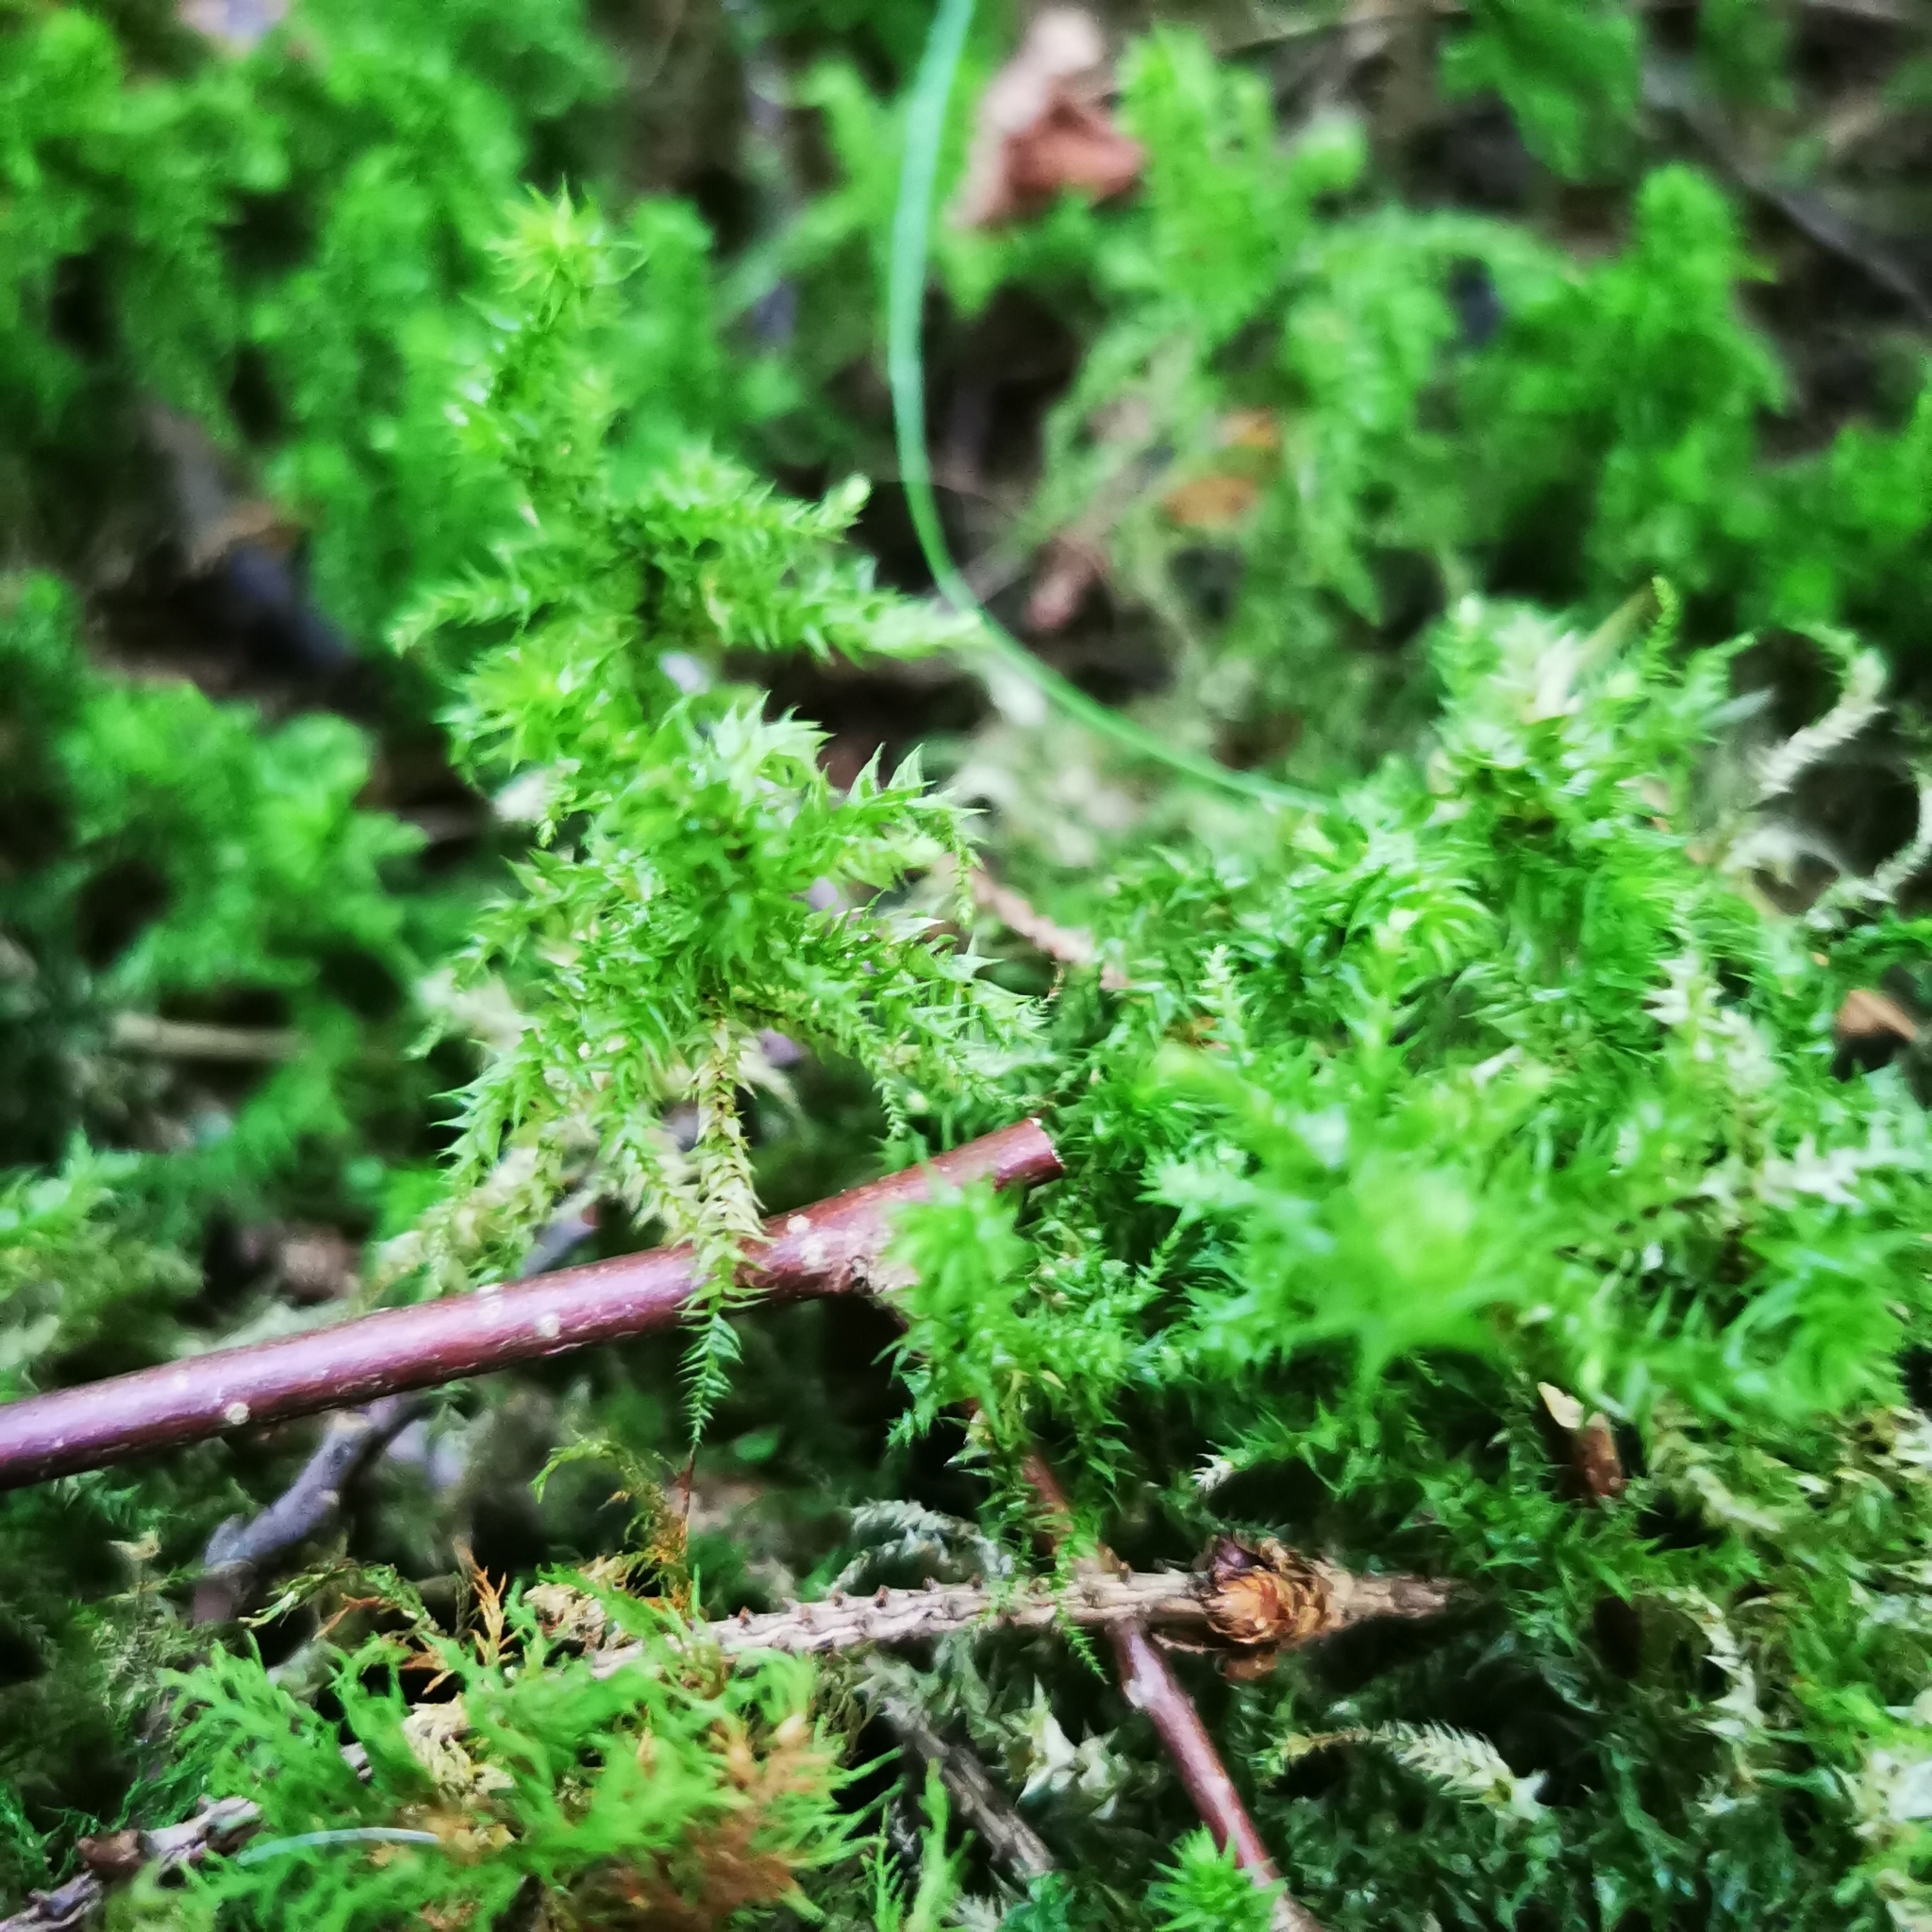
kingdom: Plantae
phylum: Bryophyta
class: Bryopsida
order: Hypnales
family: Hylocomiaceae
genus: Hylocomiadelphus
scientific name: Hylocomiadelphus triquetrus
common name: Rough goose neck moss
